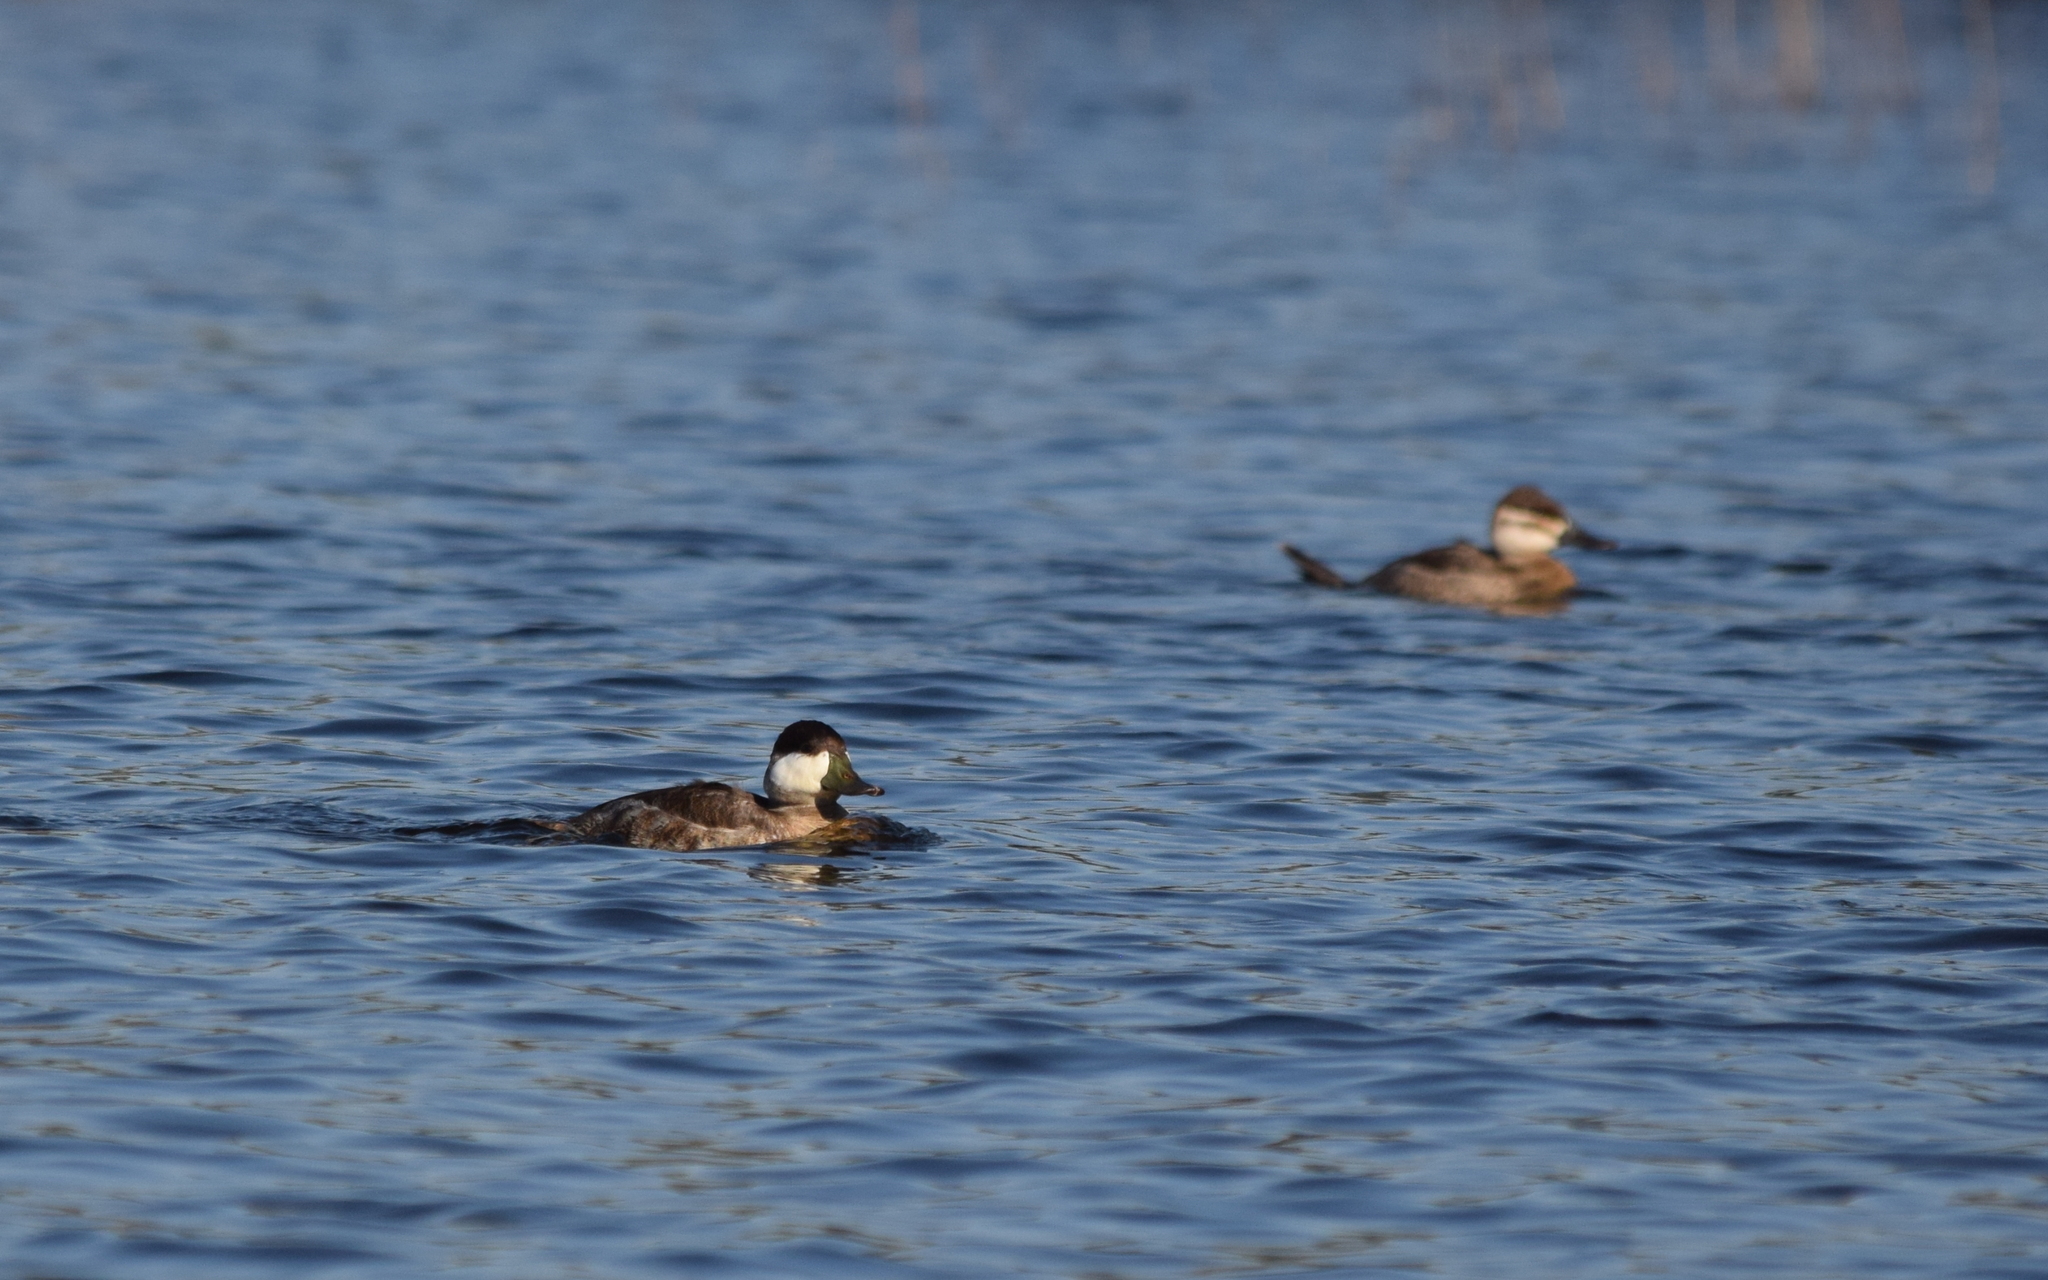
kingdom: Animalia
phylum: Chordata
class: Aves
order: Anseriformes
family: Anatidae
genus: Oxyura
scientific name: Oxyura jamaicensis
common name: Ruddy duck
